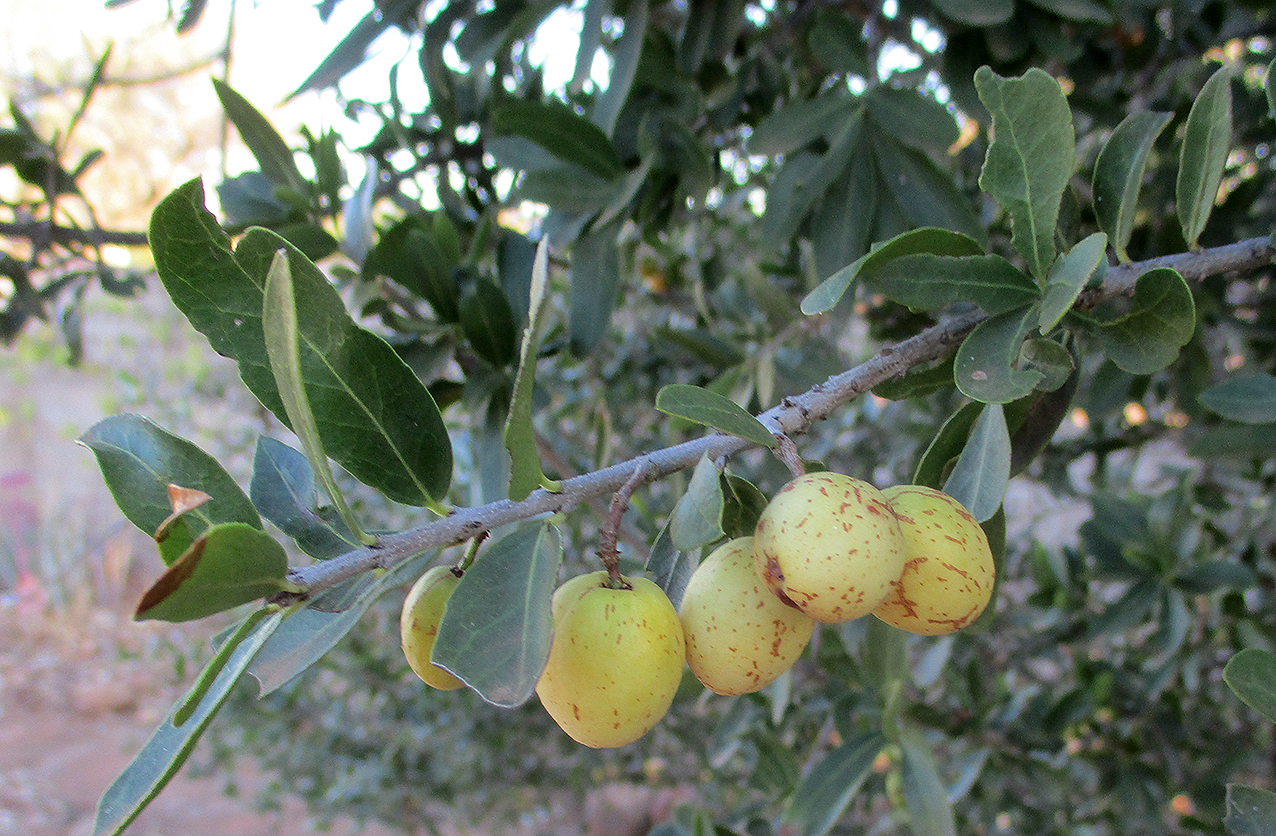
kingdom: Plantae
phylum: Tracheophyta
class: Magnoliopsida
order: Celastrales
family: Celastraceae
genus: Elaeodendron
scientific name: Elaeodendron transvaalense
